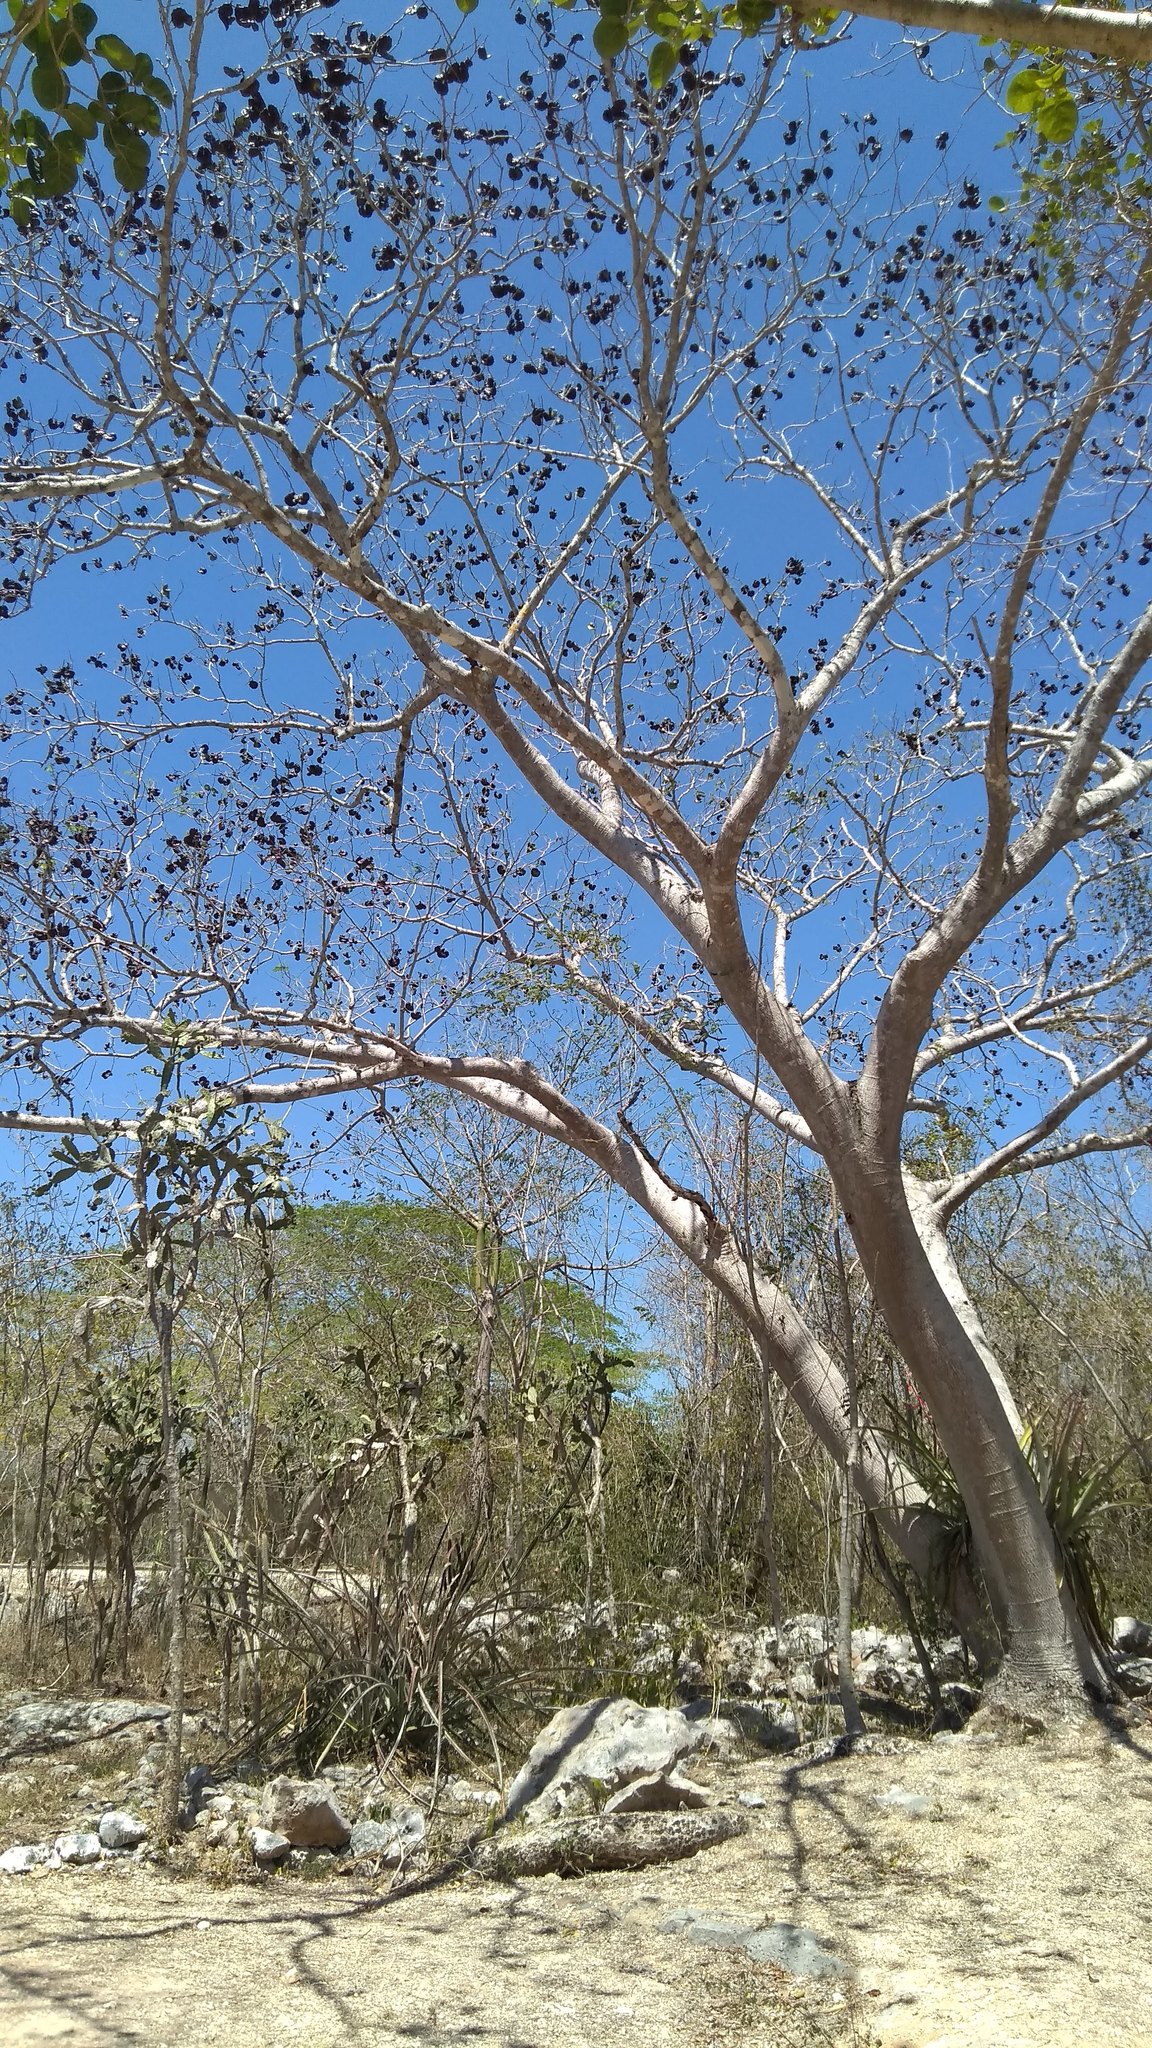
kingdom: Plantae
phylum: Tracheophyta
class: Magnoliopsida
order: Fabales
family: Fabaceae
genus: Enterolobium
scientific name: Enterolobium cyclocarpum
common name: Ear tree
